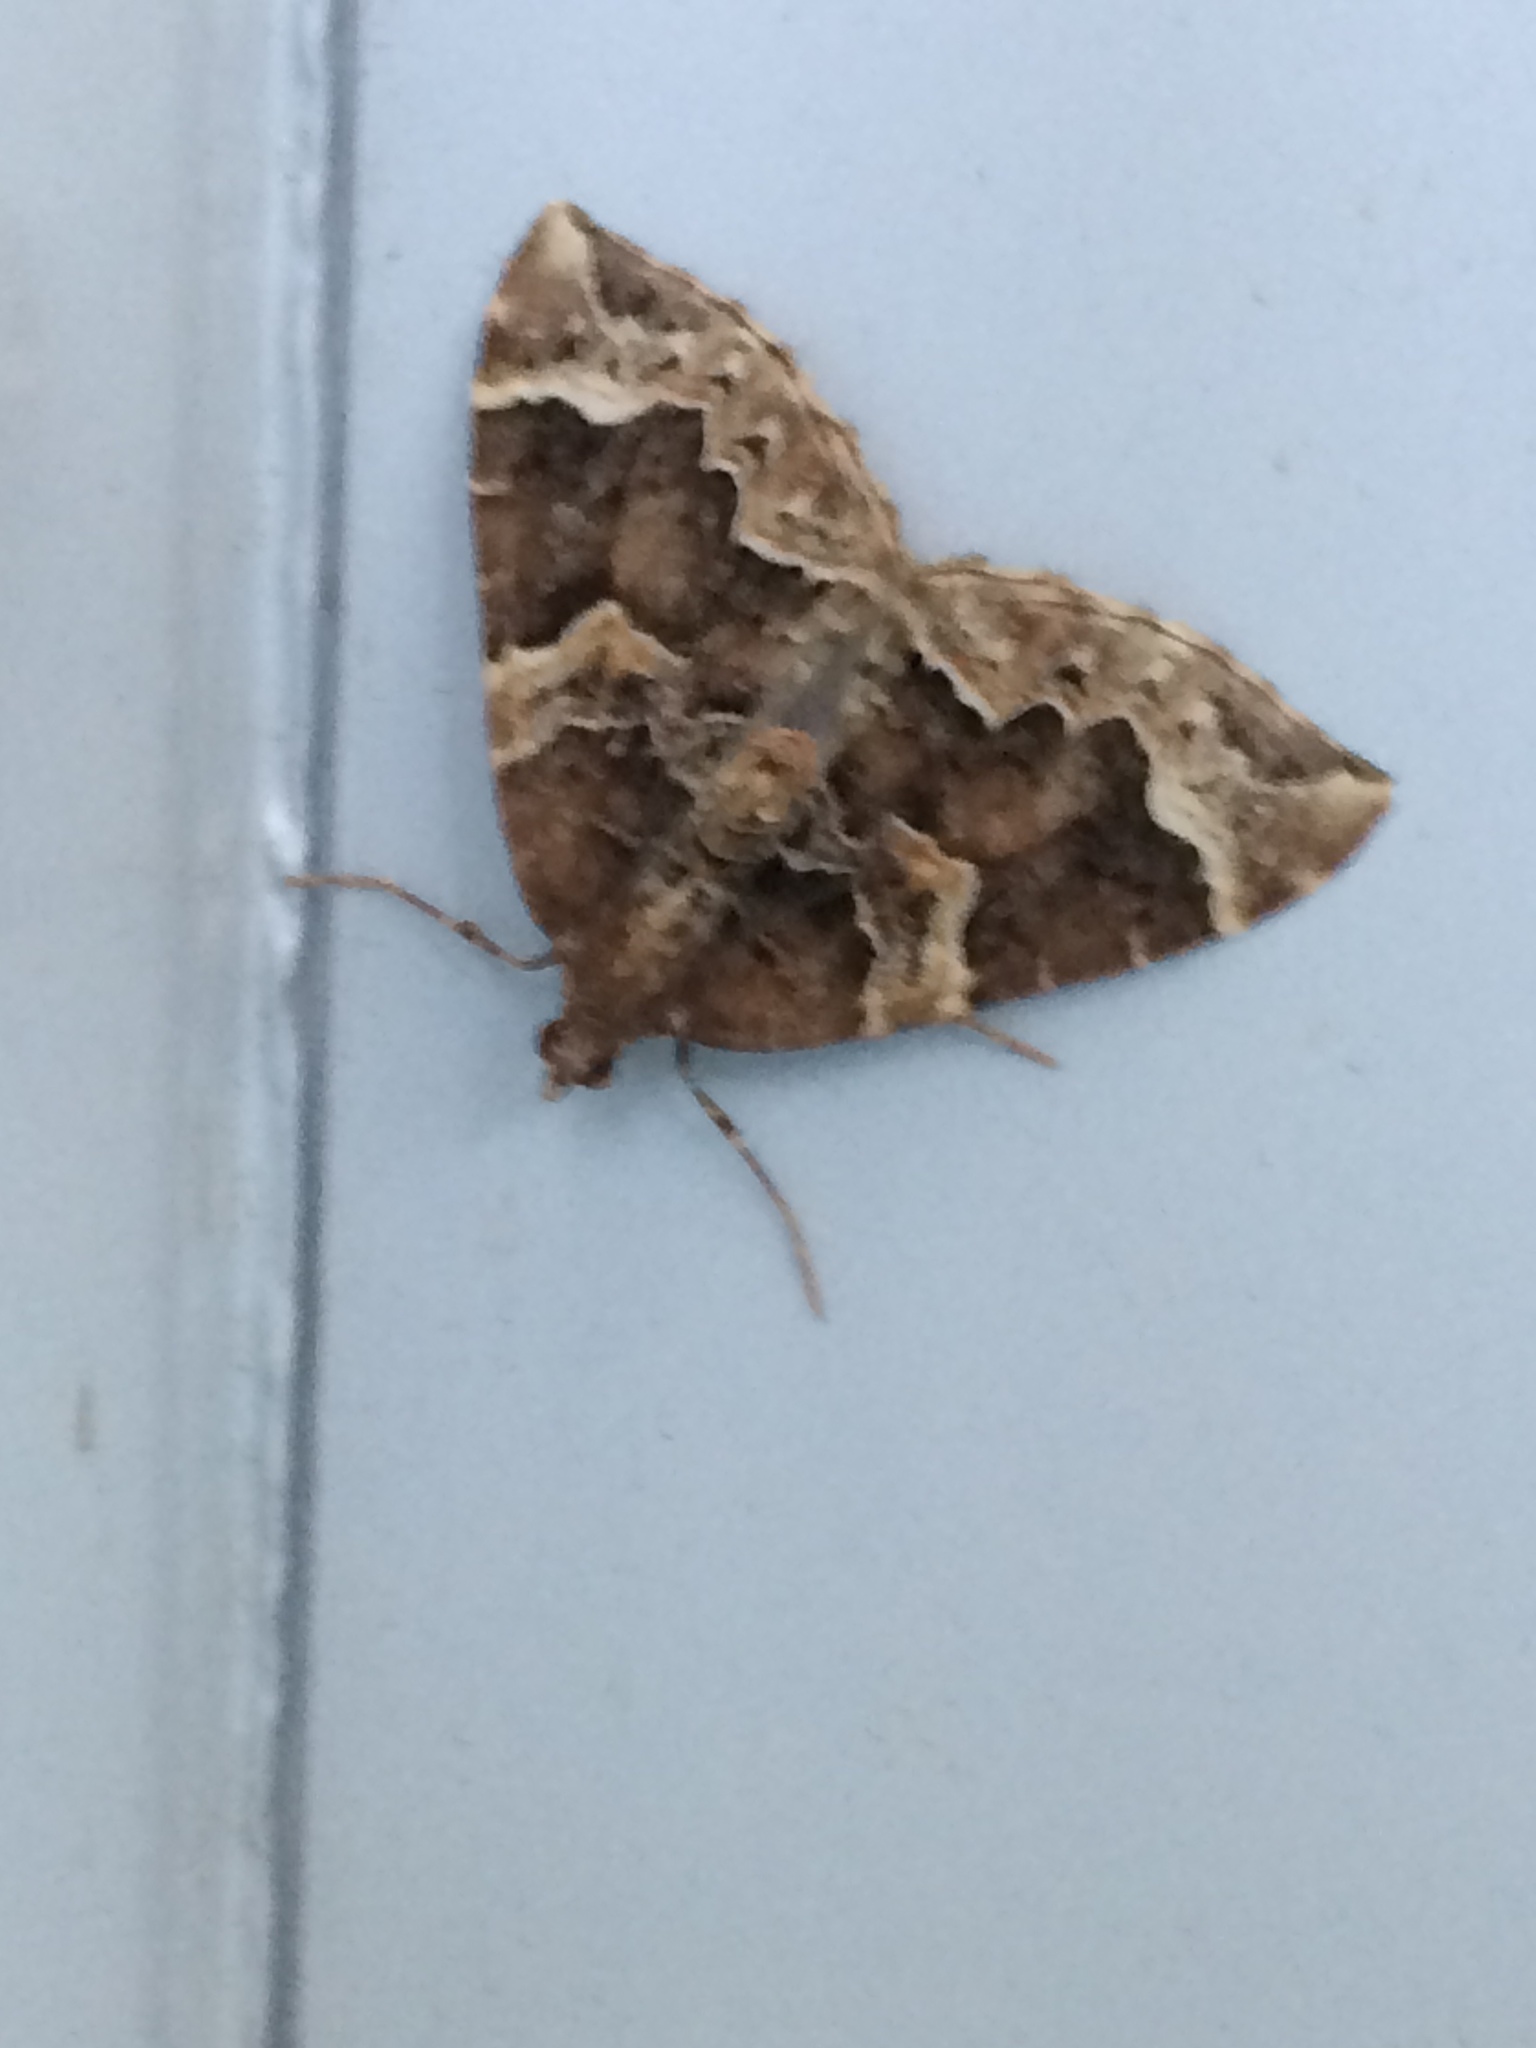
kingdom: Animalia
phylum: Arthropoda
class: Insecta
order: Lepidoptera
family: Geometridae
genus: Eulithis
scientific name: Eulithis prunata
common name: Phoenix
